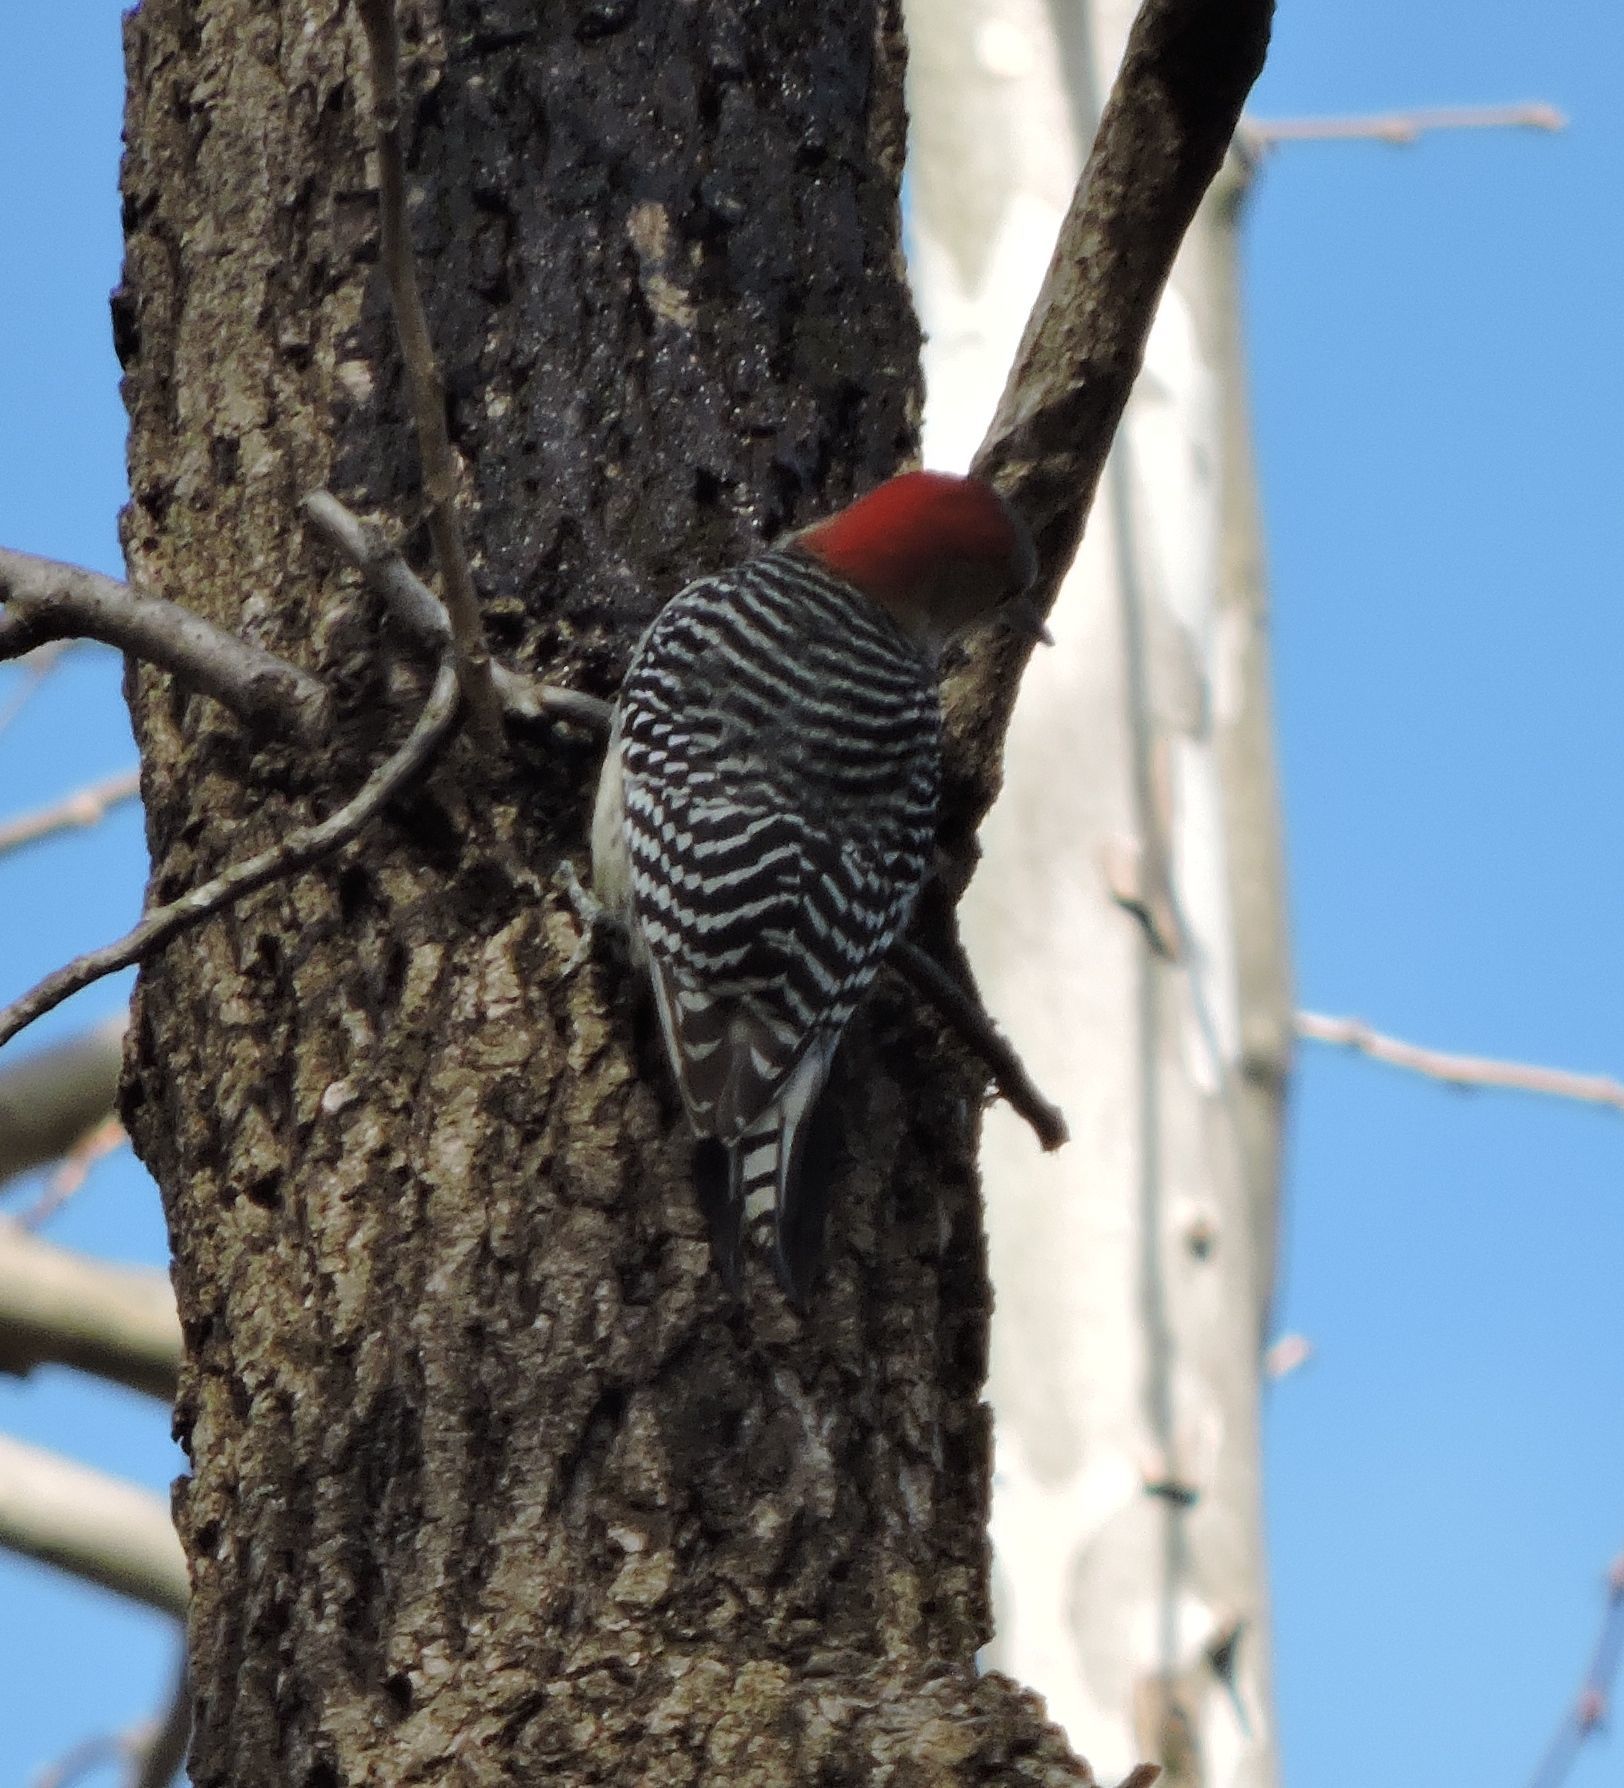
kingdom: Animalia
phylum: Chordata
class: Aves
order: Piciformes
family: Picidae
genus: Melanerpes
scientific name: Melanerpes carolinus
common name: Red-bellied woodpecker
